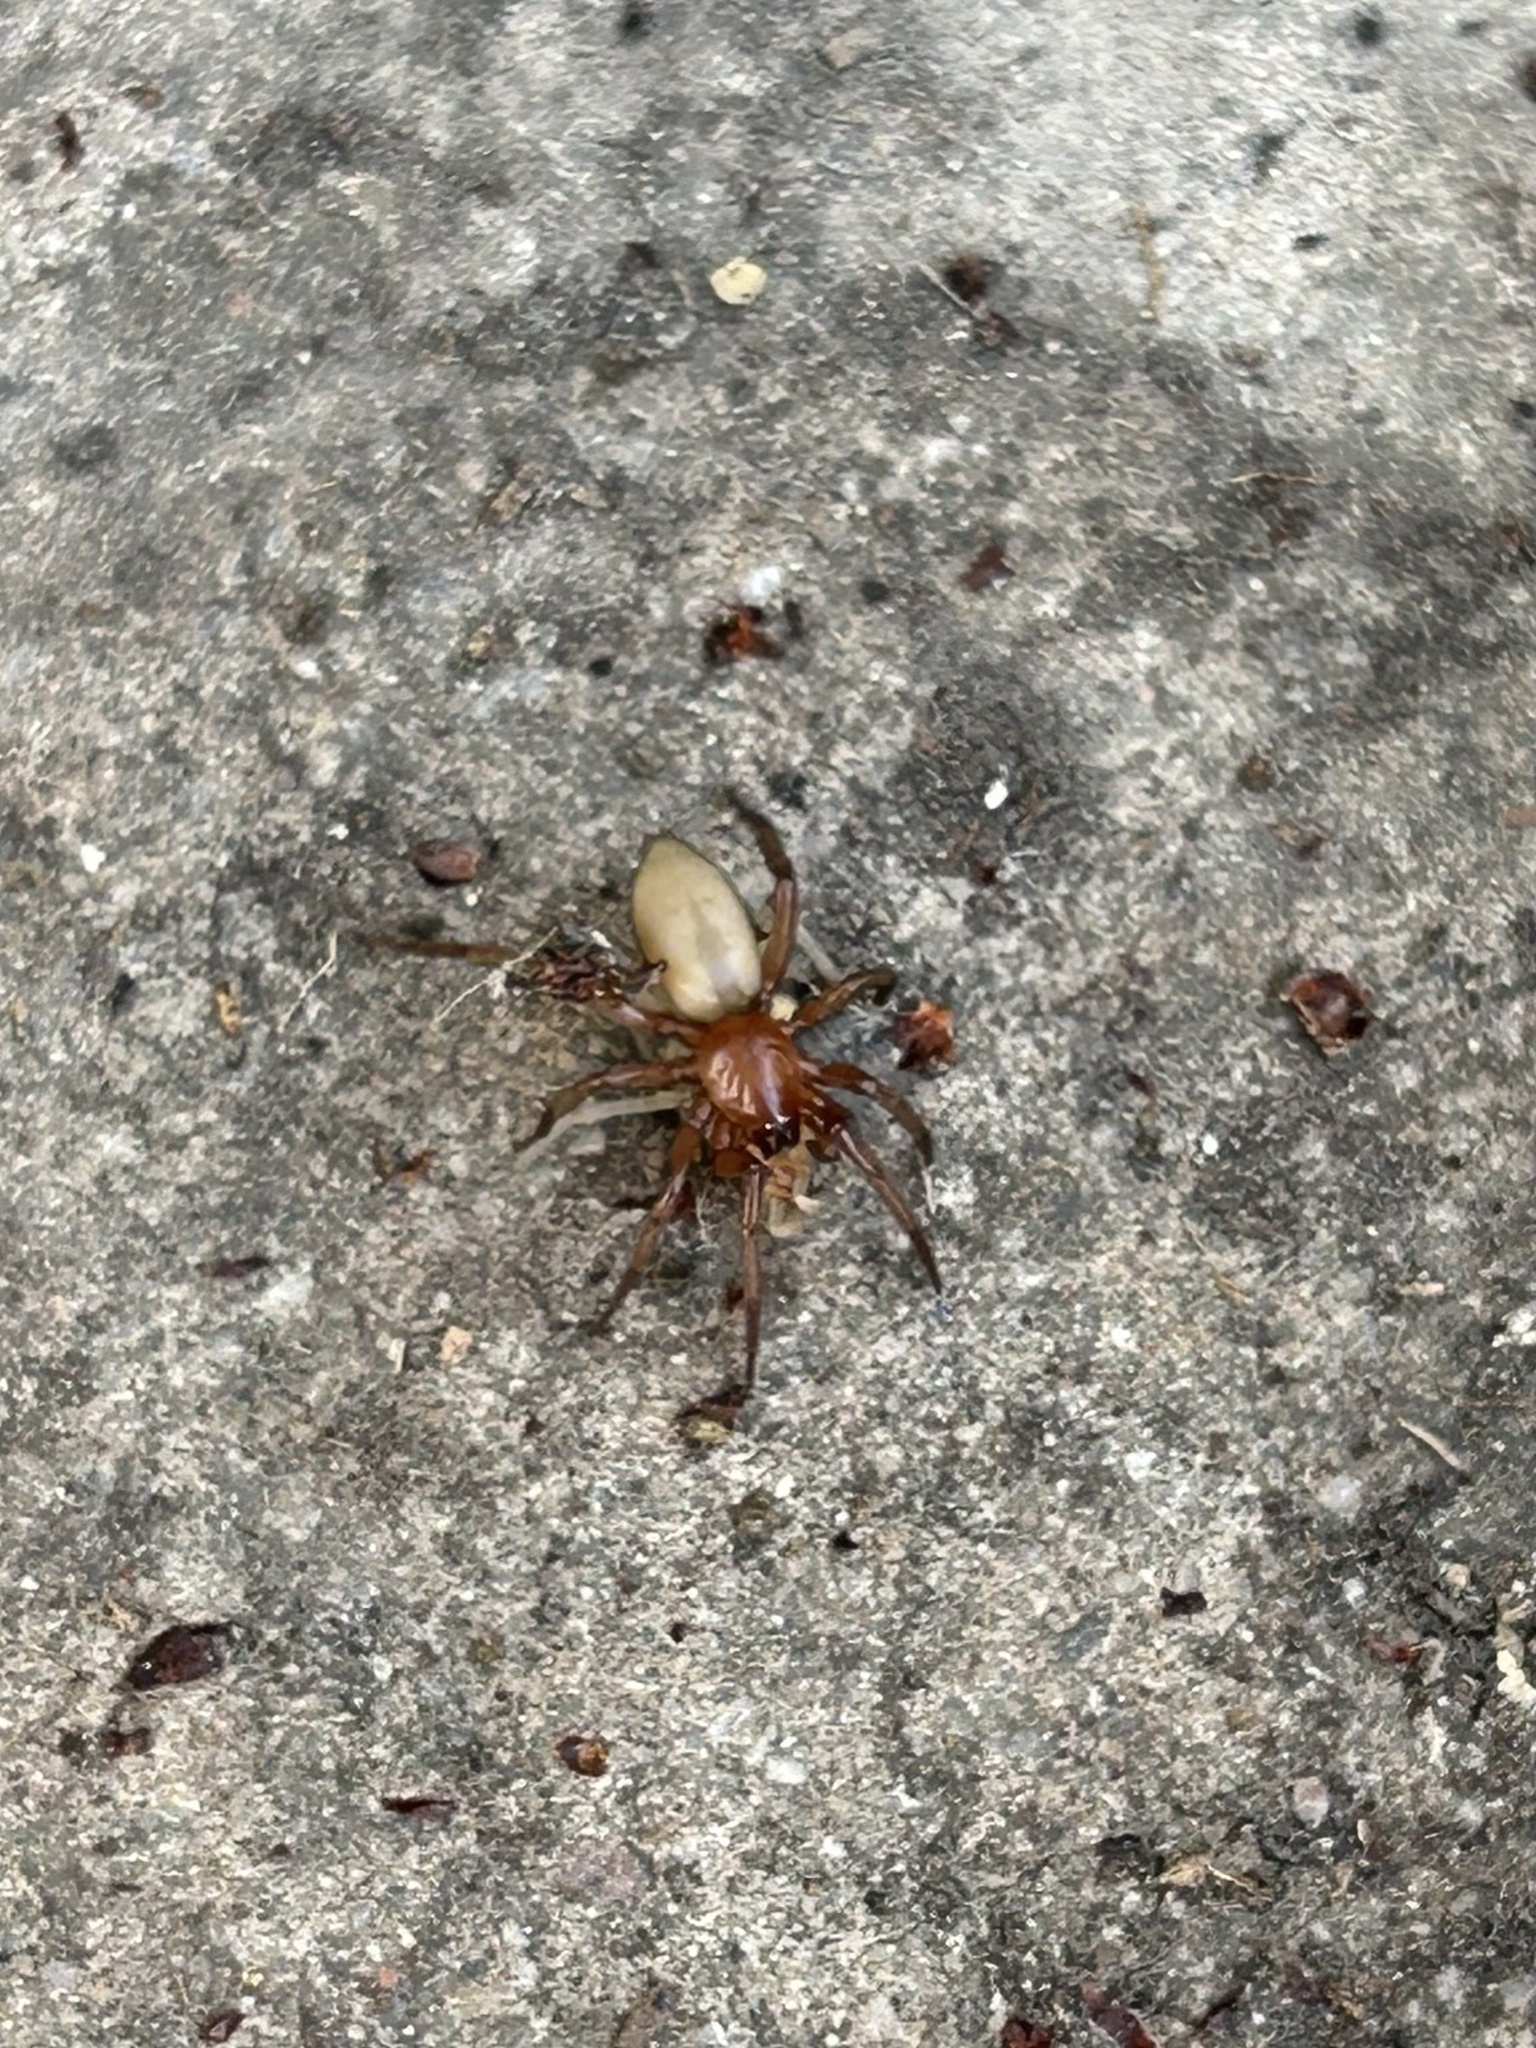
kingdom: Animalia
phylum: Arthropoda
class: Arachnida
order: Araneae
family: Dysderidae
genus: Dysdera
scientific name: Dysdera crocata
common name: Woodlouse spider
